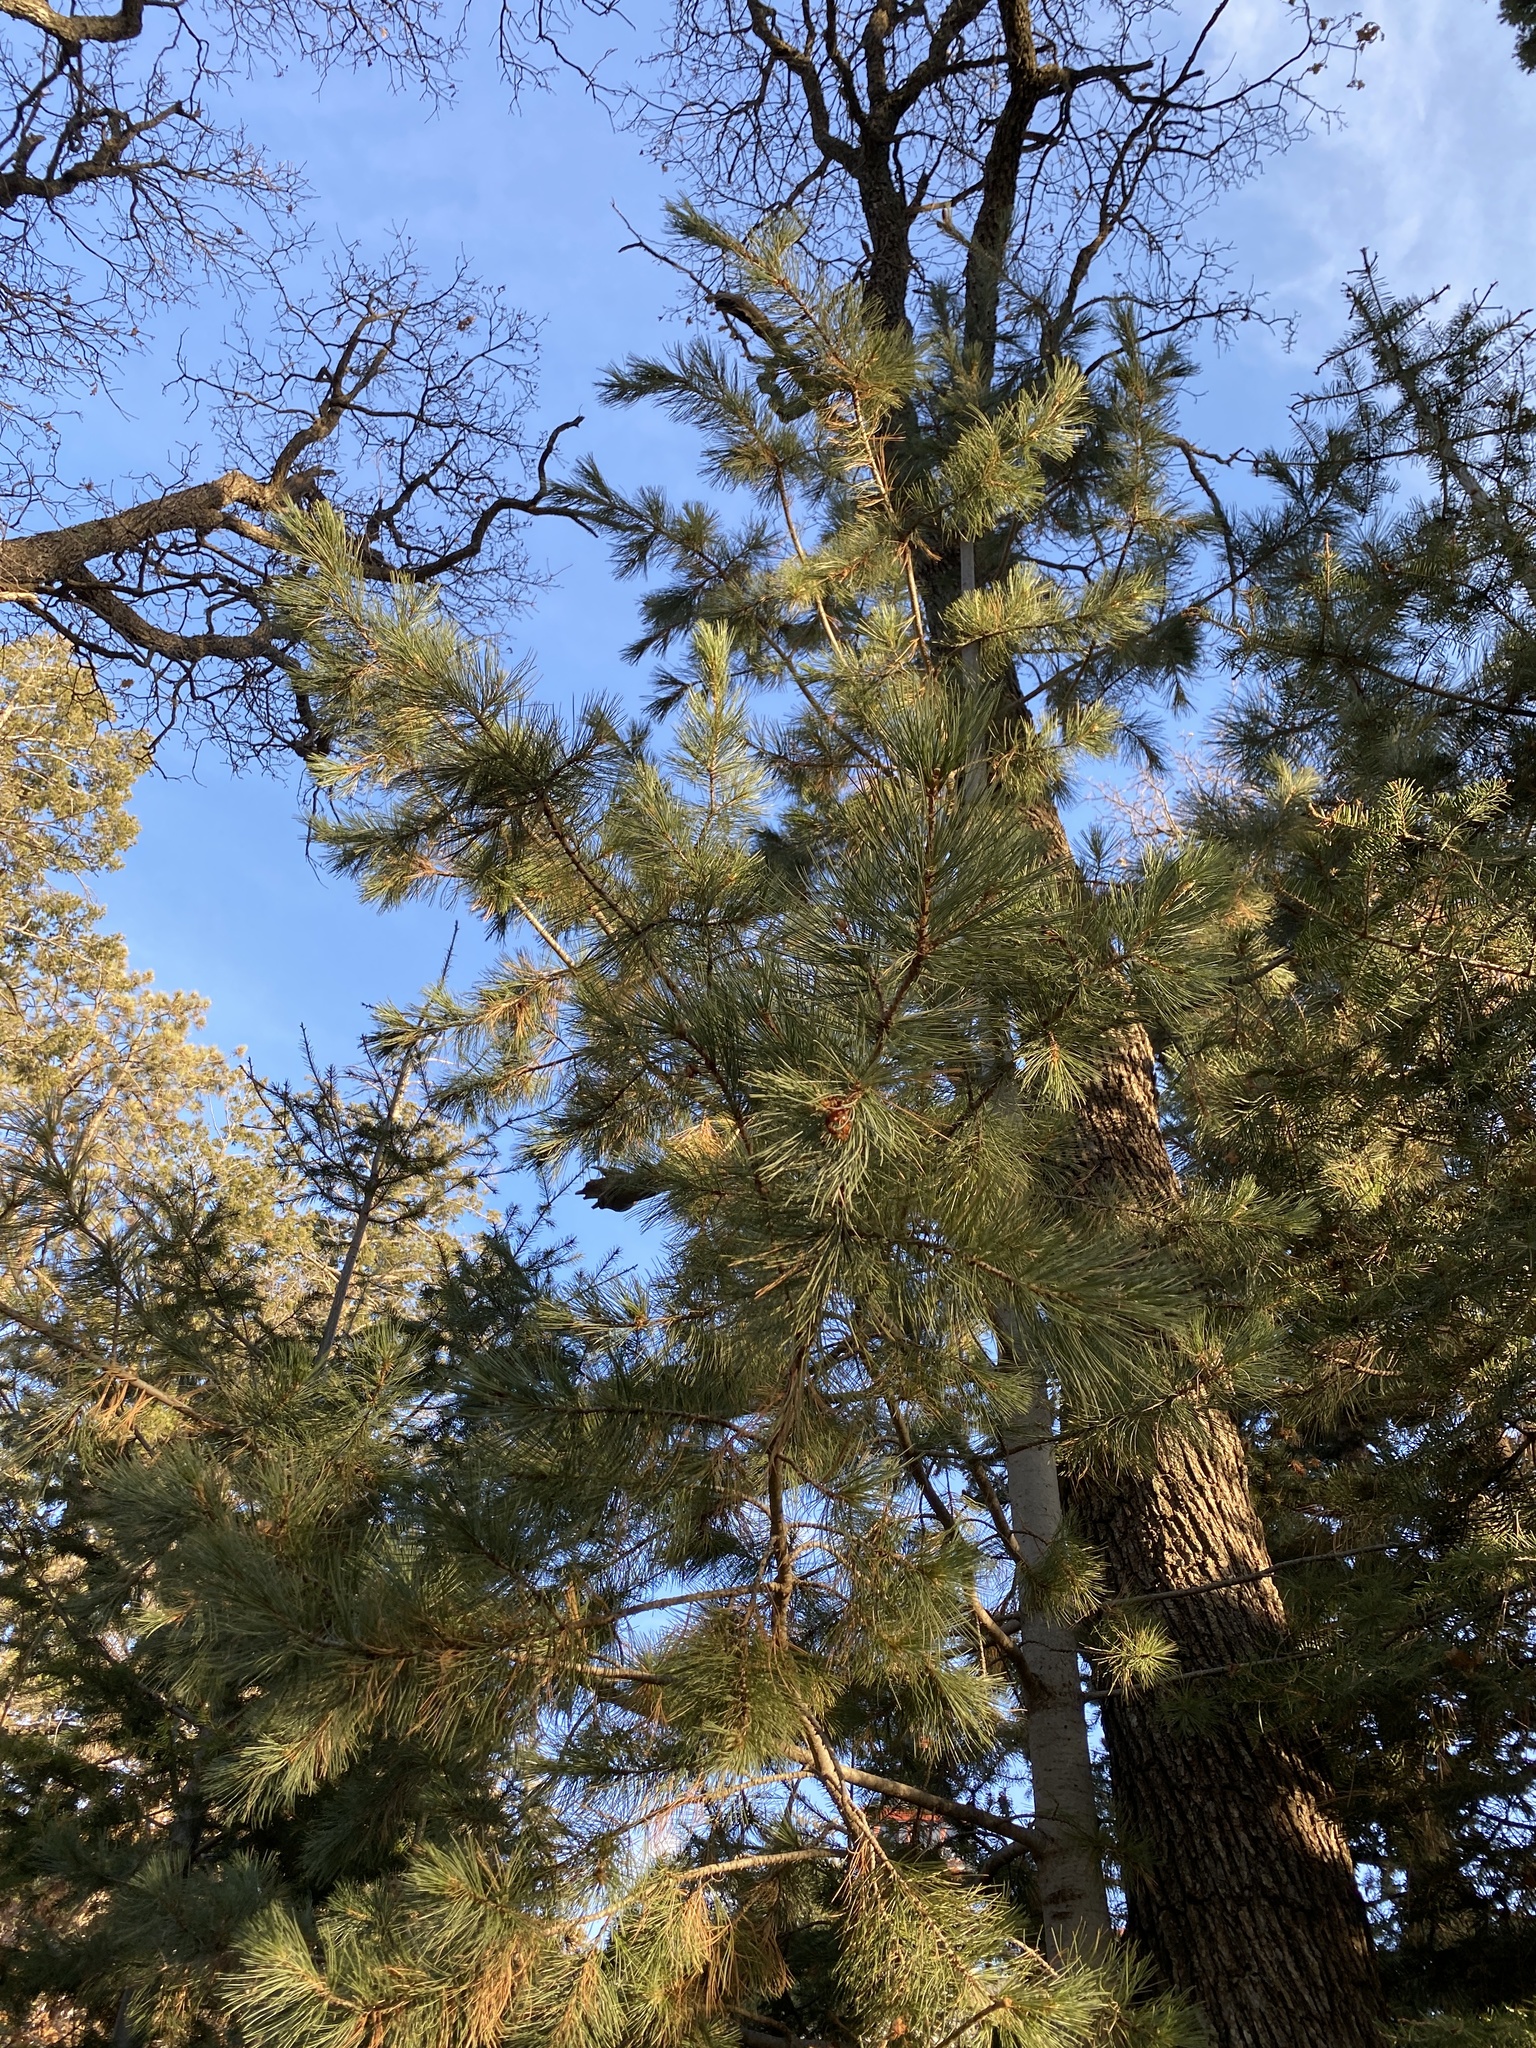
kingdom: Plantae
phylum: Tracheophyta
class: Pinopsida
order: Pinales
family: Pinaceae
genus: Pinus
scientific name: Pinus strobiformis
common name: Southwestern white pine
